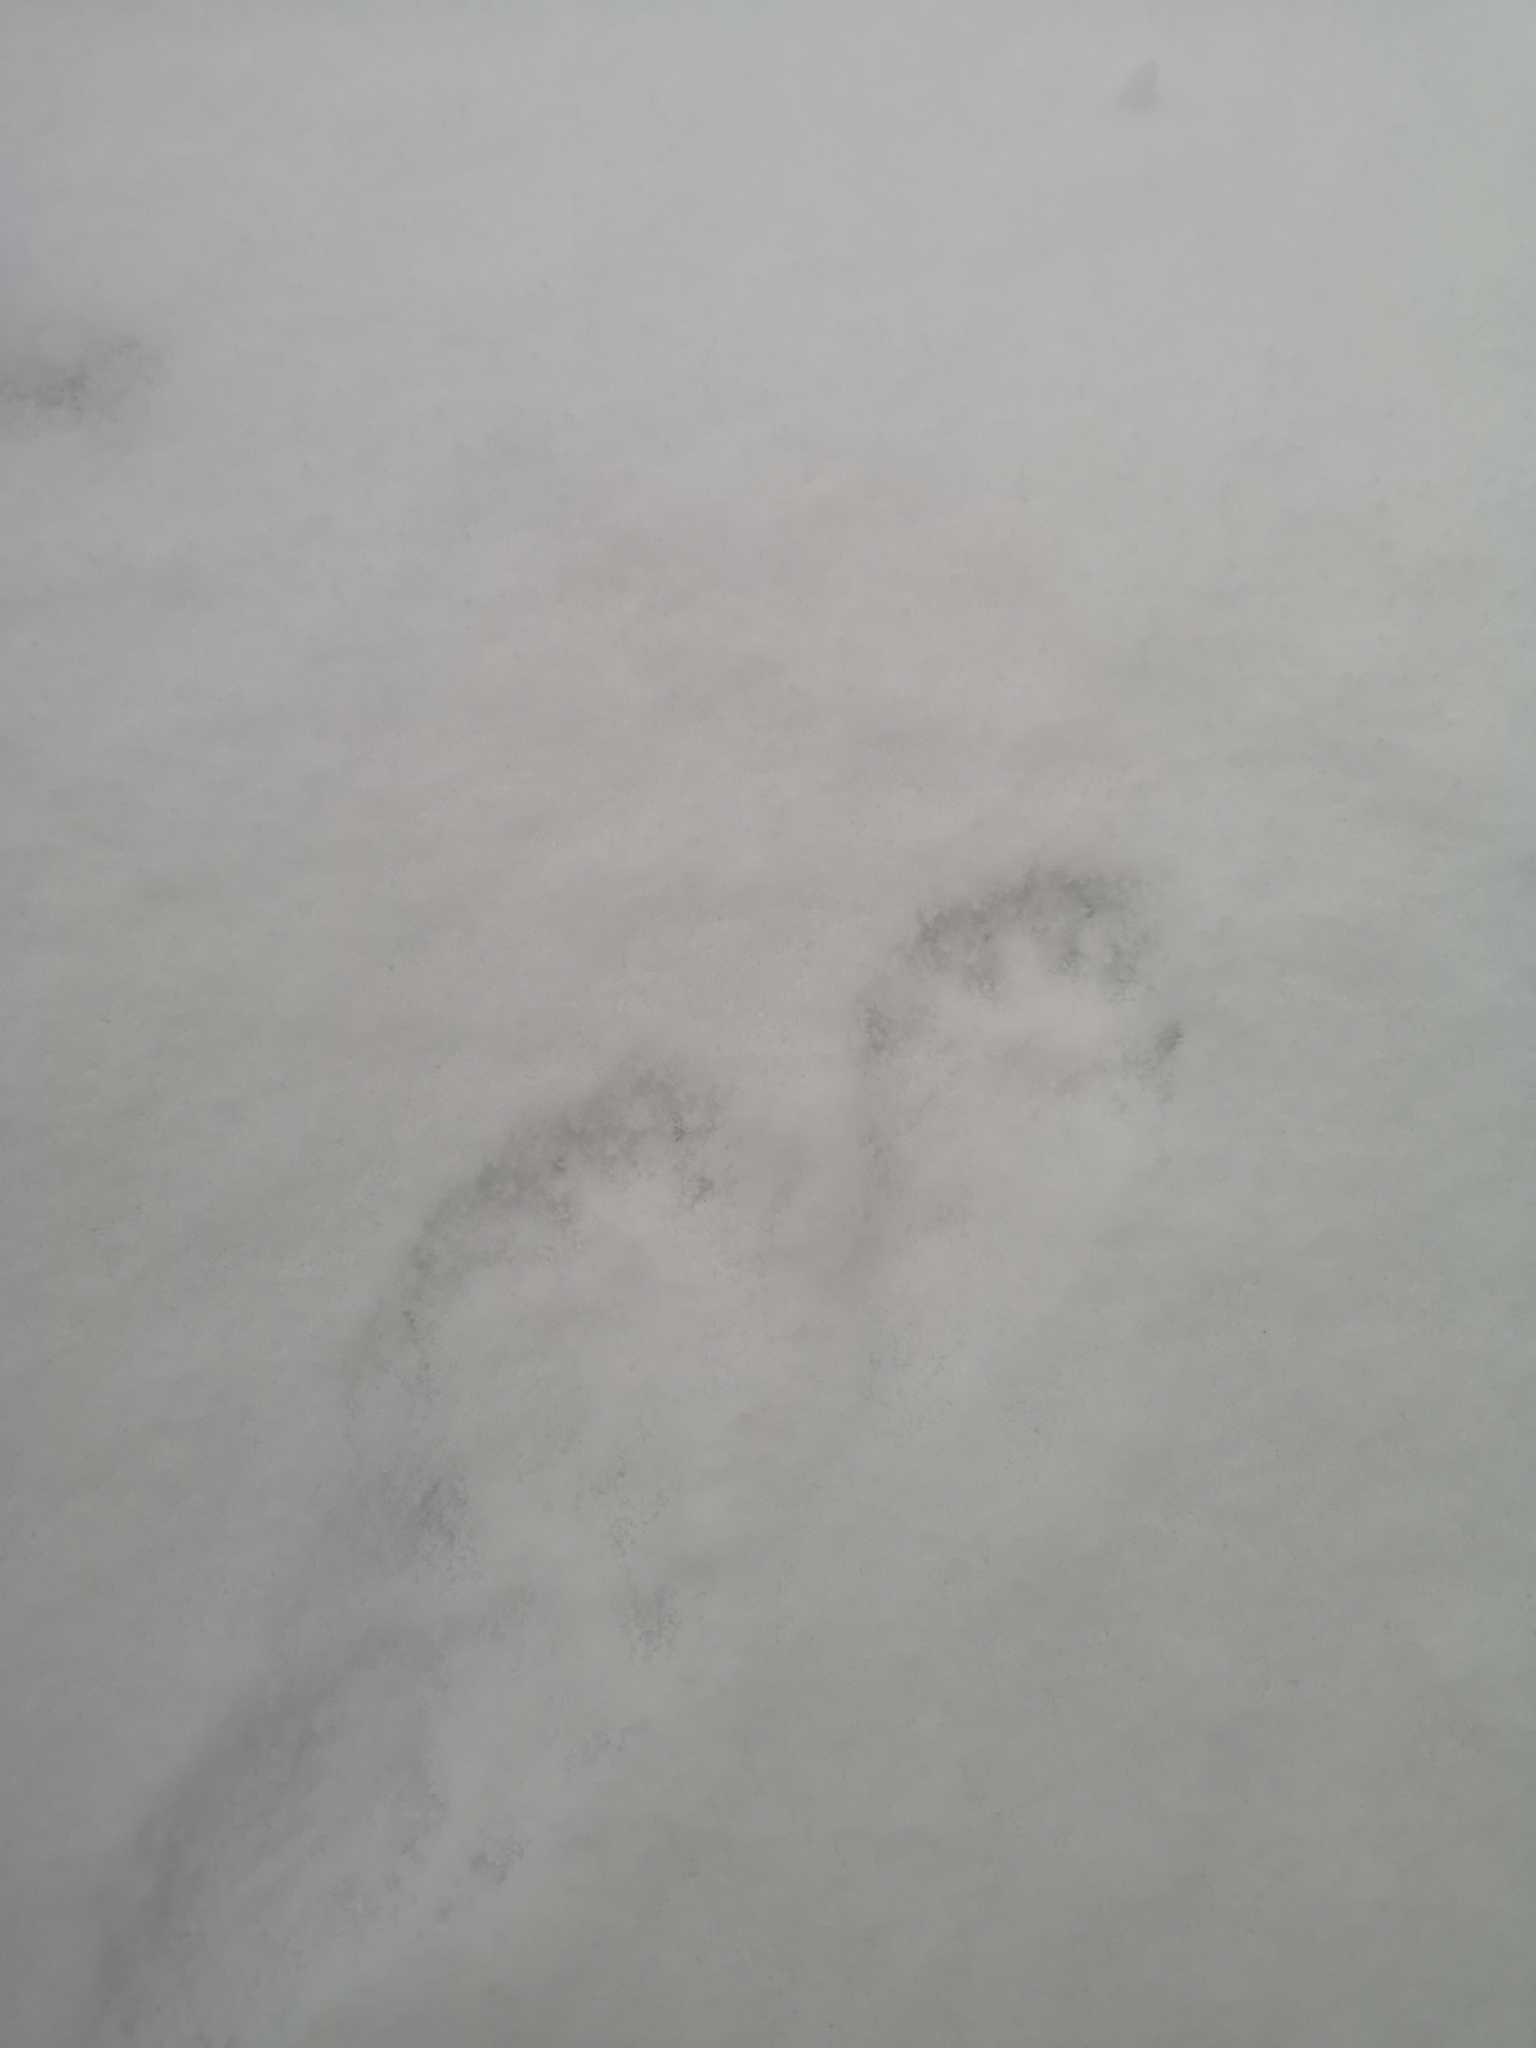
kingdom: Animalia
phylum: Chordata
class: Mammalia
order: Carnivora
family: Mustelidae
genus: Meles
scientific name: Meles meles
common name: Eurasian badger
